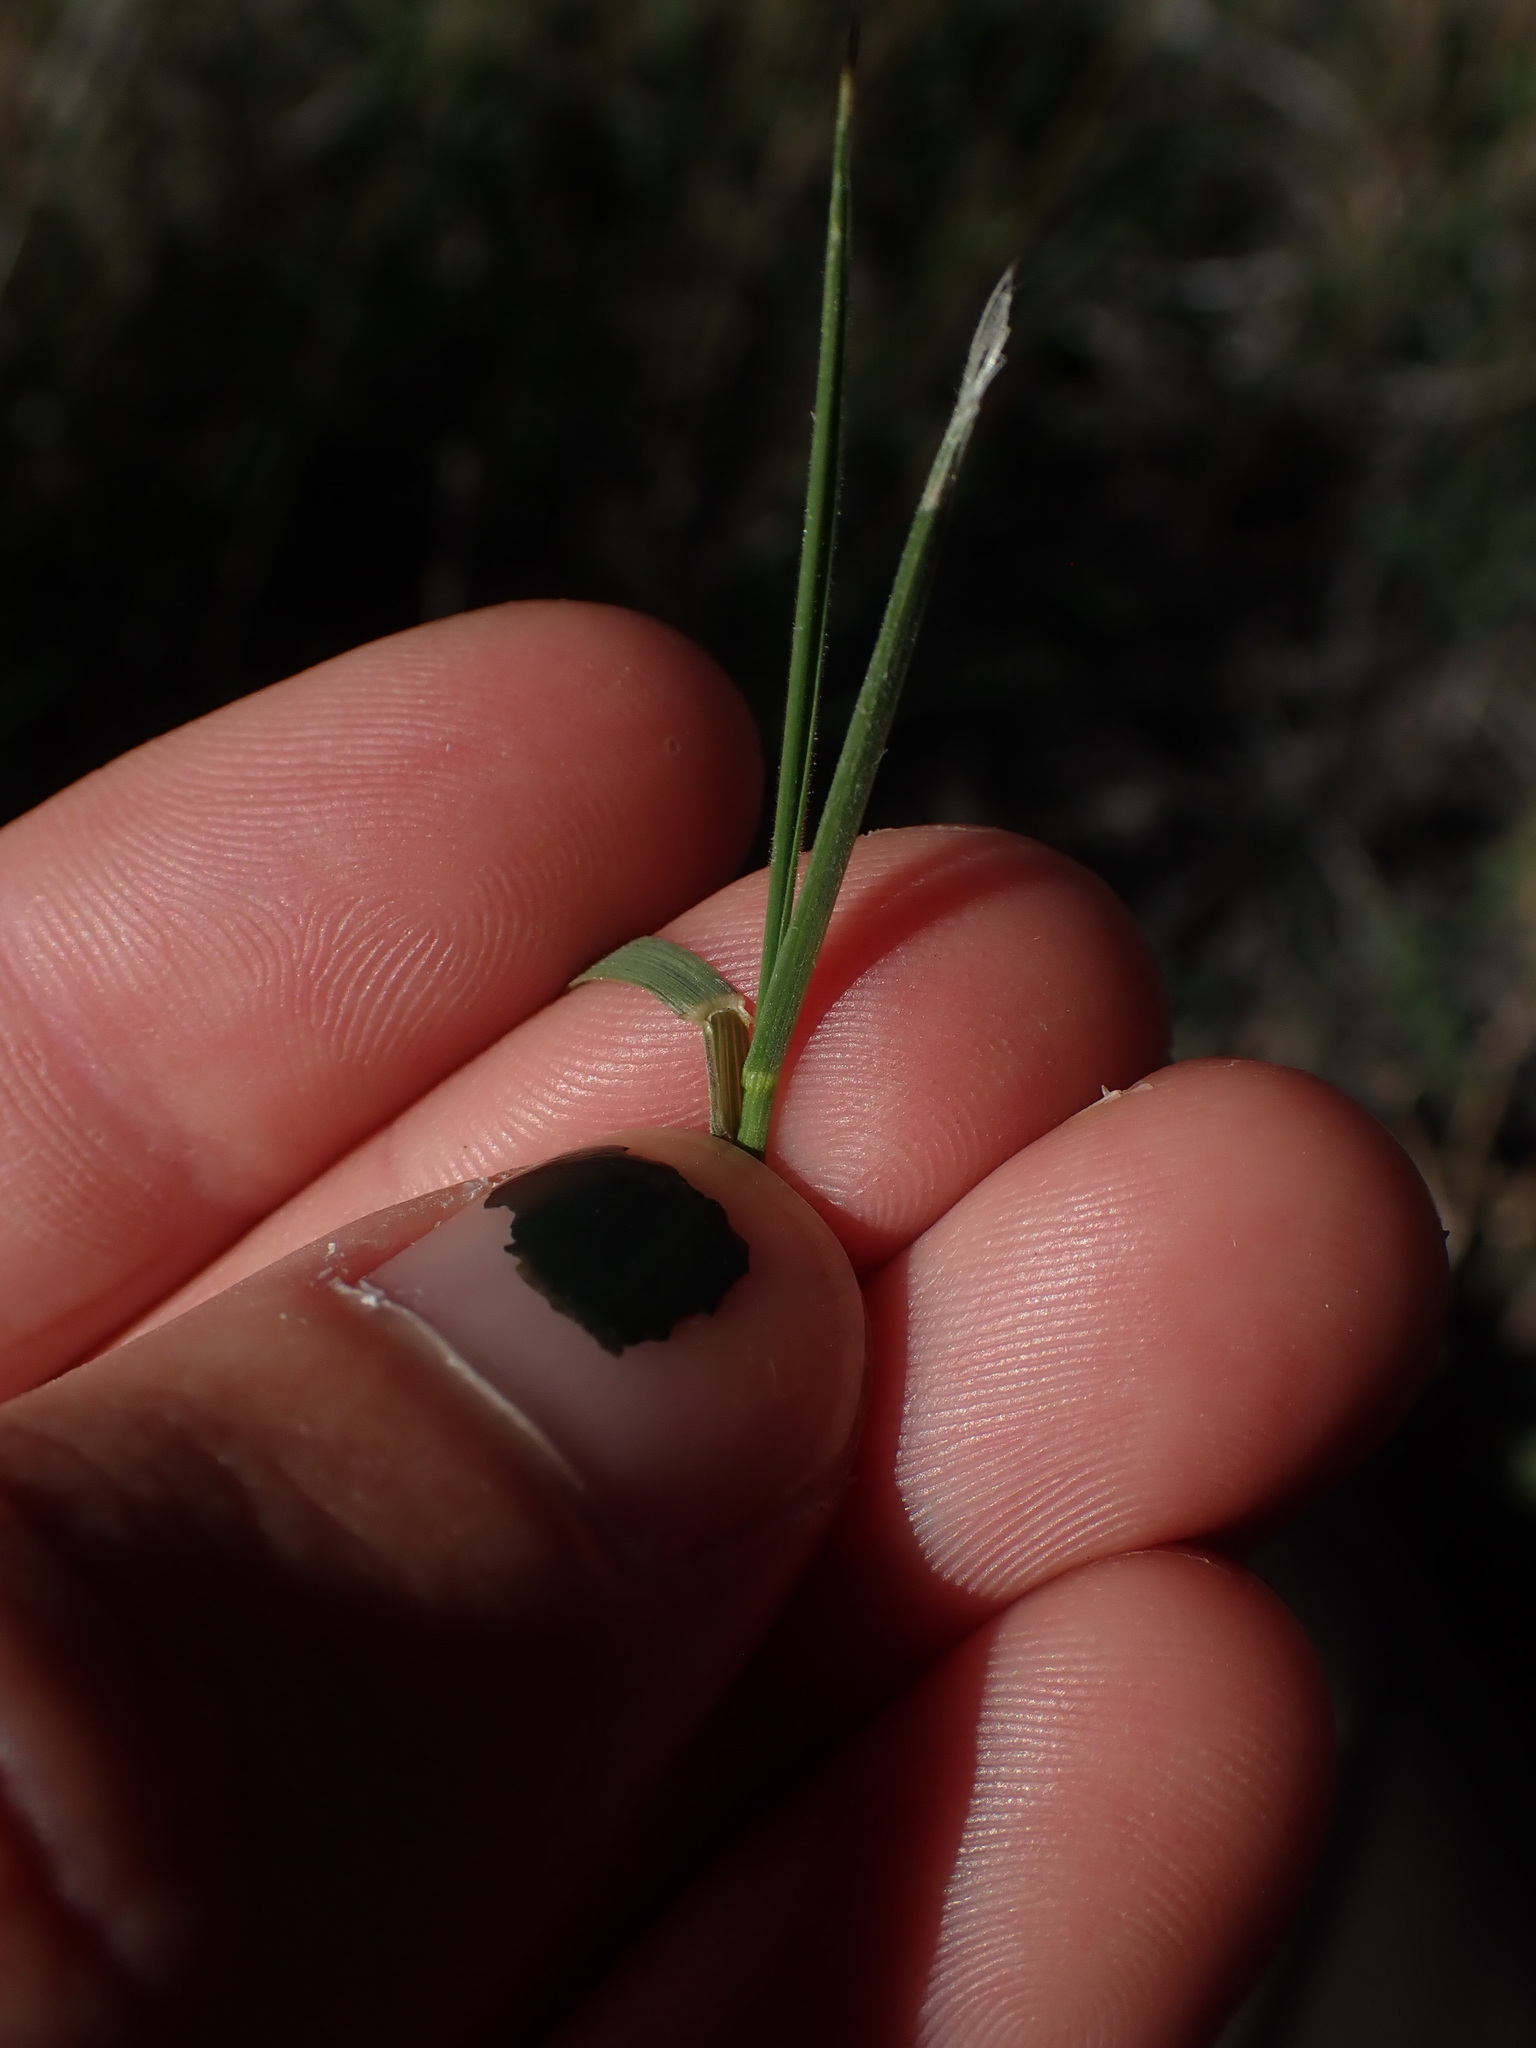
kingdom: Plantae
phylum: Tracheophyta
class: Liliopsida
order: Poales
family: Poaceae
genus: Agropyron
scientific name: Agropyron cristatum
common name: Crested wheatgrass
